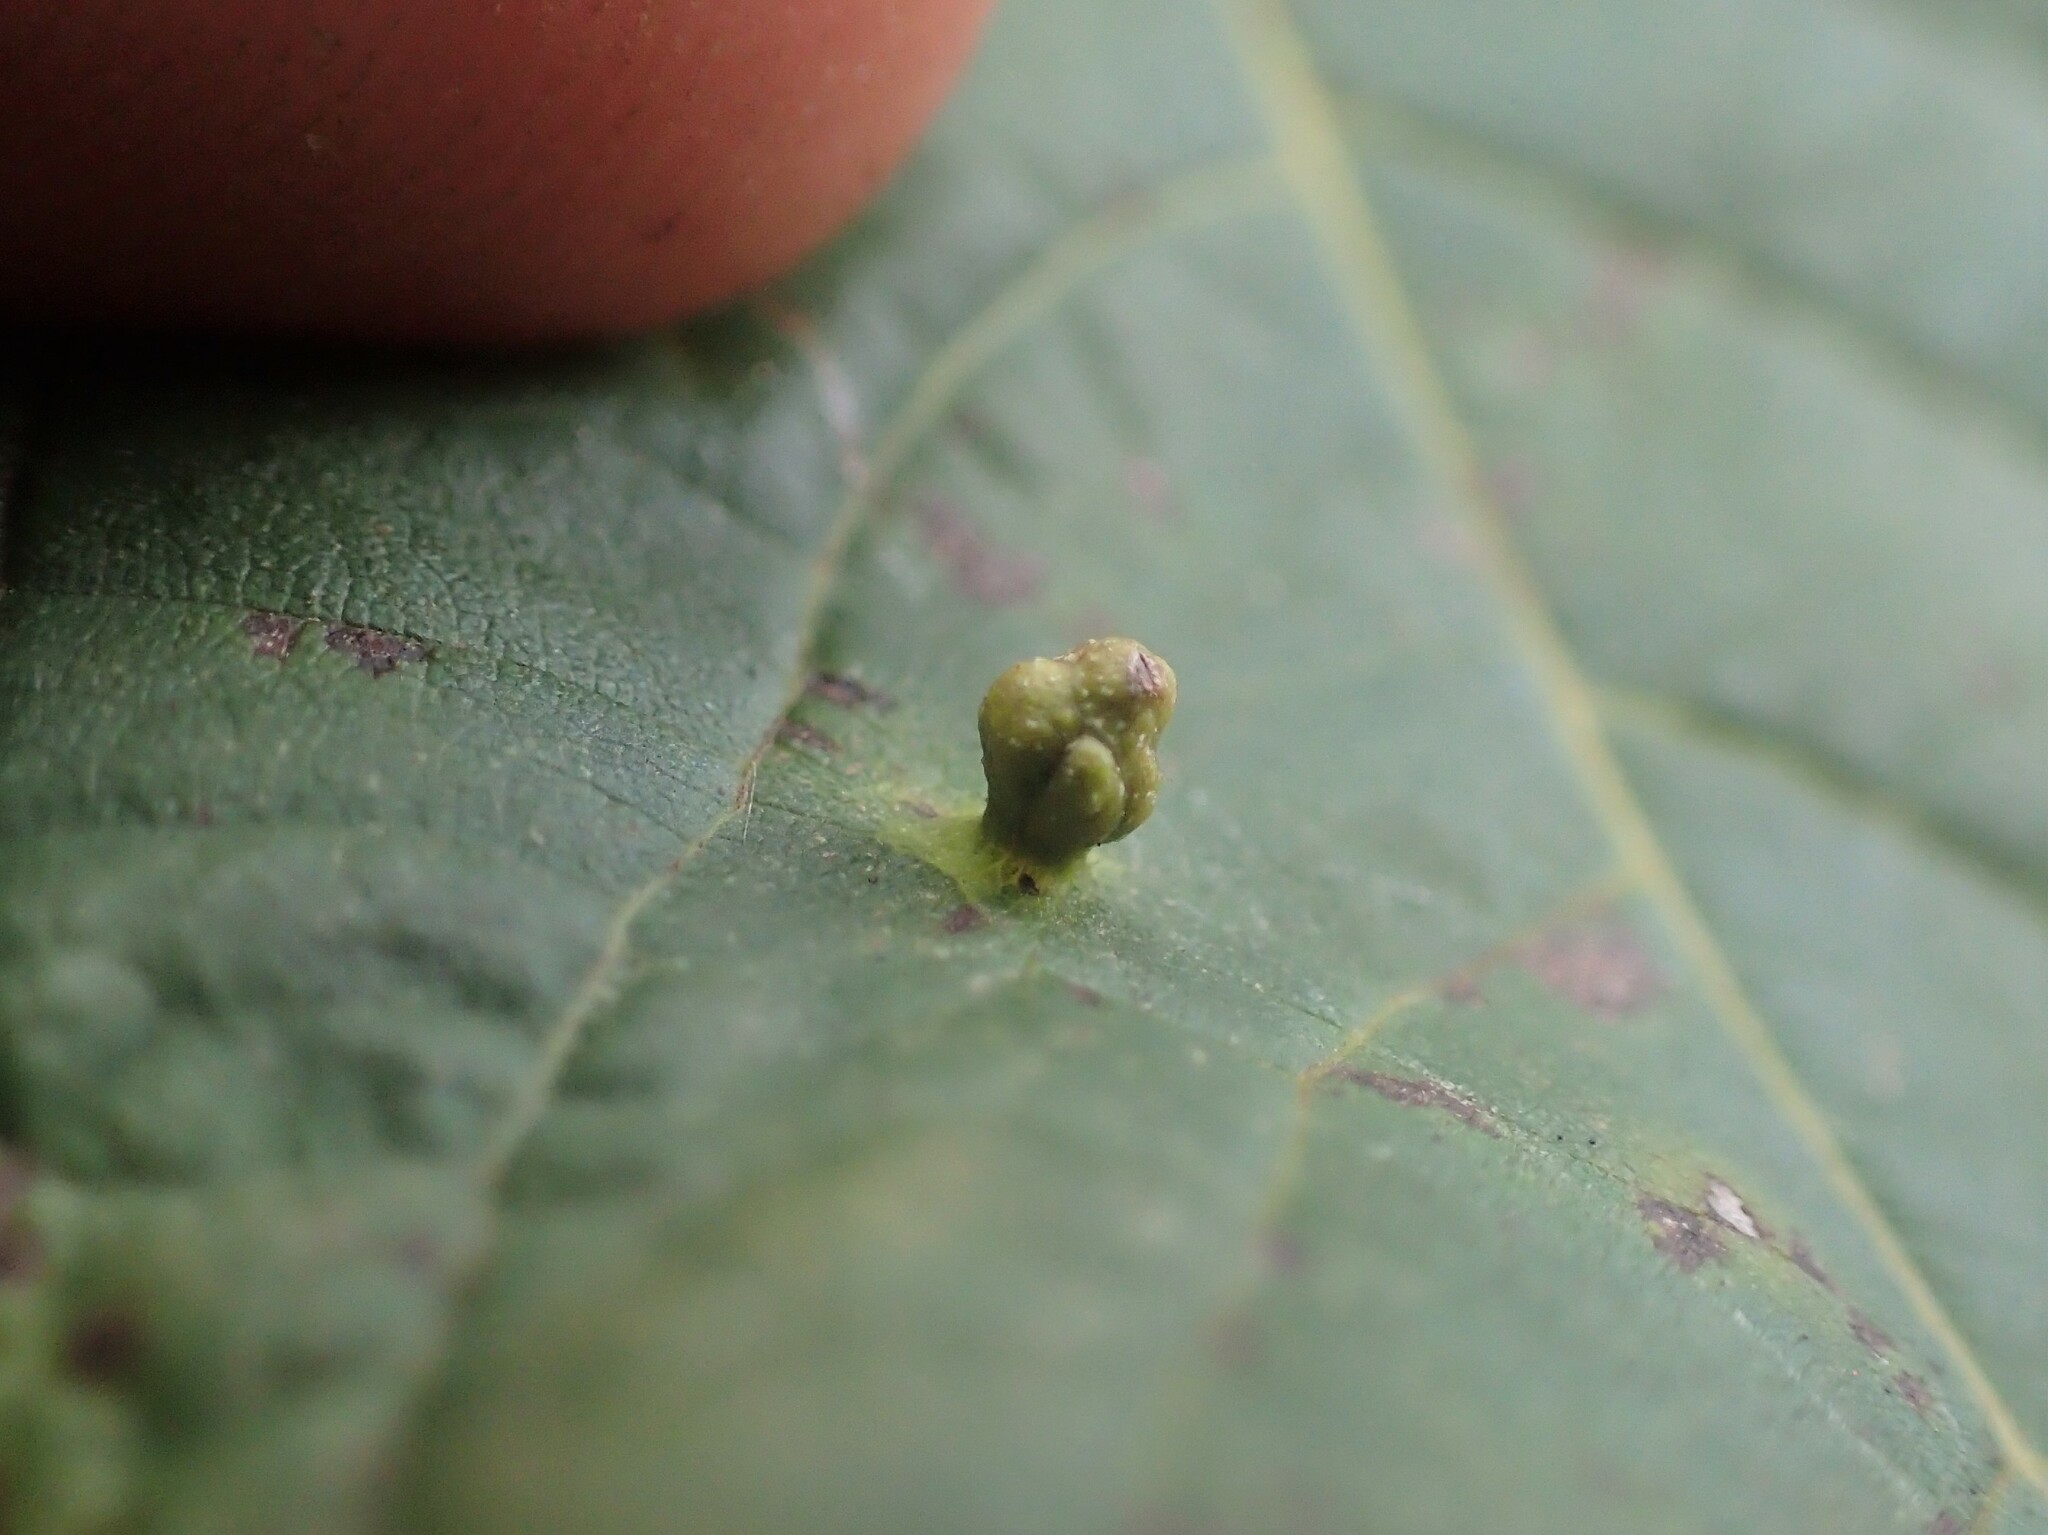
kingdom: Animalia
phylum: Arthropoda
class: Arachnida
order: Trombidiformes
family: Eriophyidae
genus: Aceria
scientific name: Aceria brachytarsus
